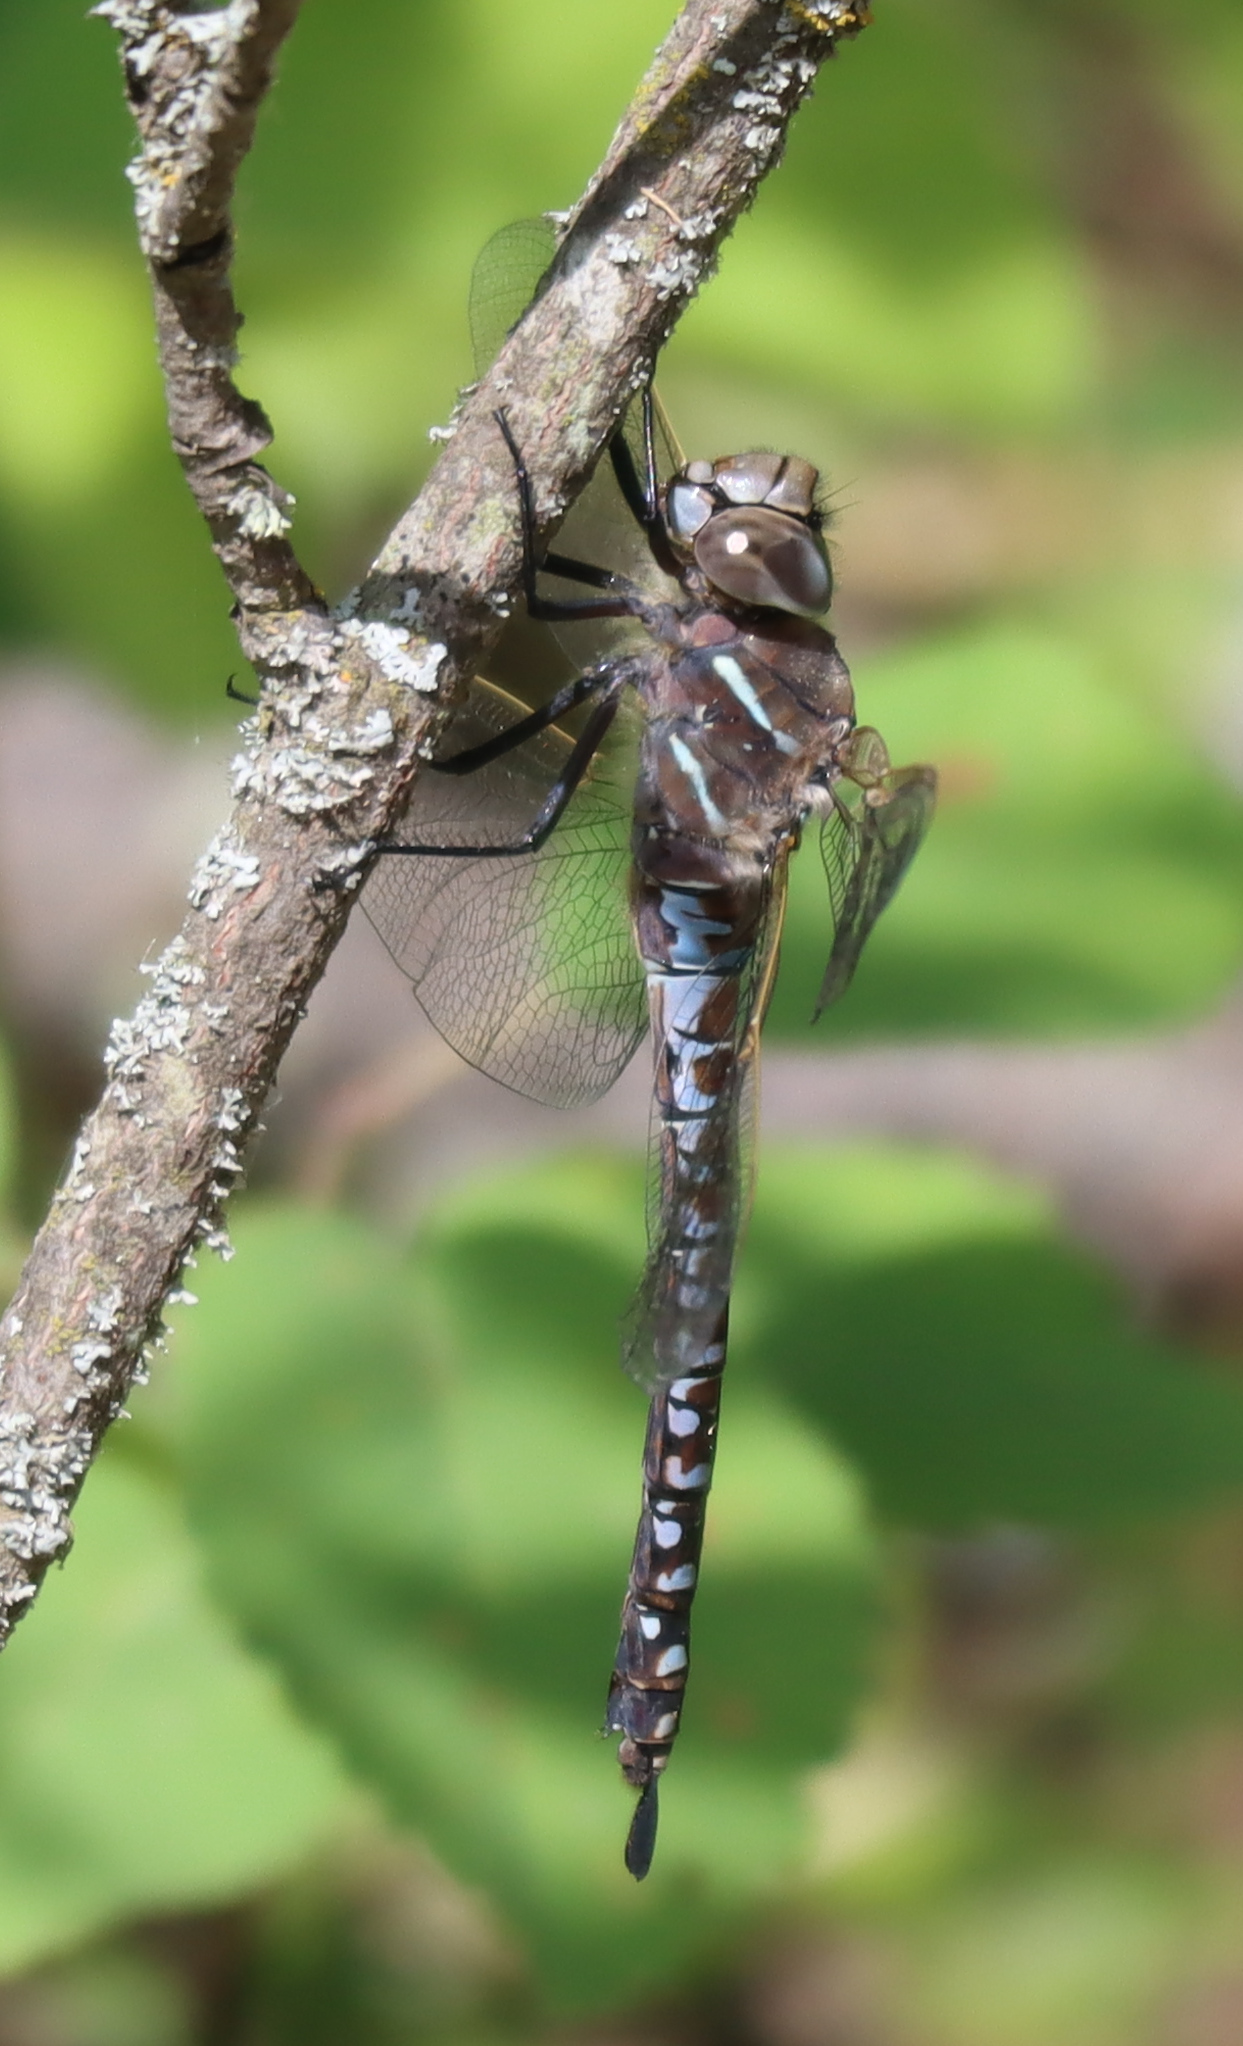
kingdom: Animalia
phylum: Arthropoda
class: Insecta
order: Odonata
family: Aeshnidae
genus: Aeshna
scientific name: Aeshna interrupta
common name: Variable darner
